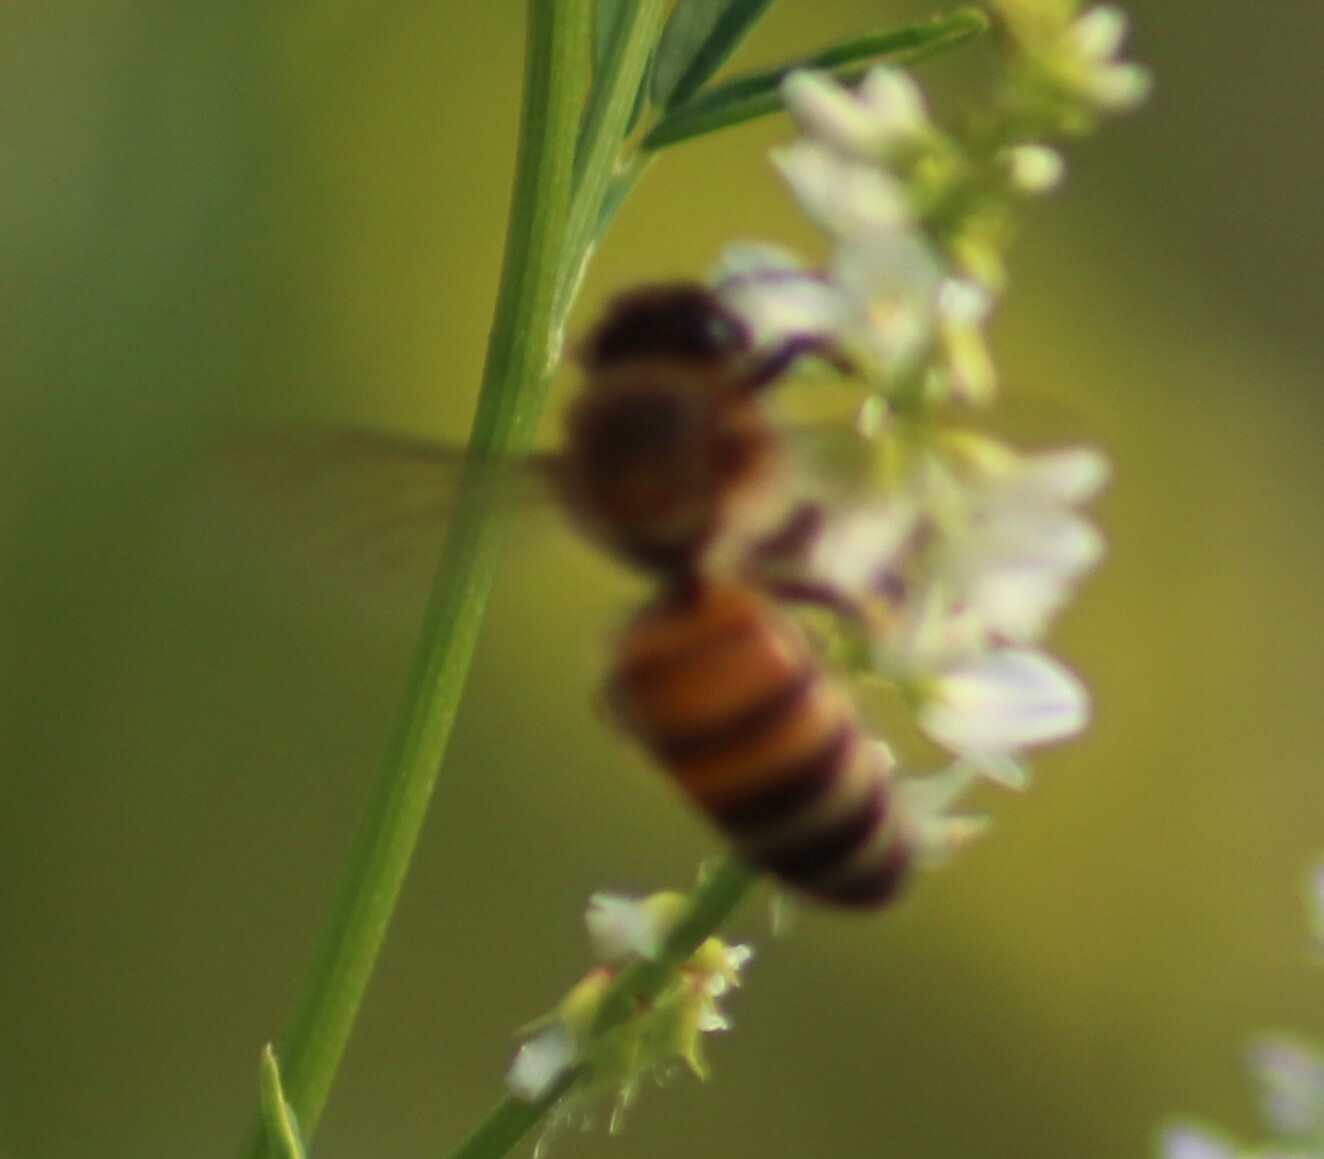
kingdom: Animalia
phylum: Arthropoda
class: Insecta
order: Hymenoptera
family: Apidae
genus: Apis
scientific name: Apis mellifera
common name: Honey bee
